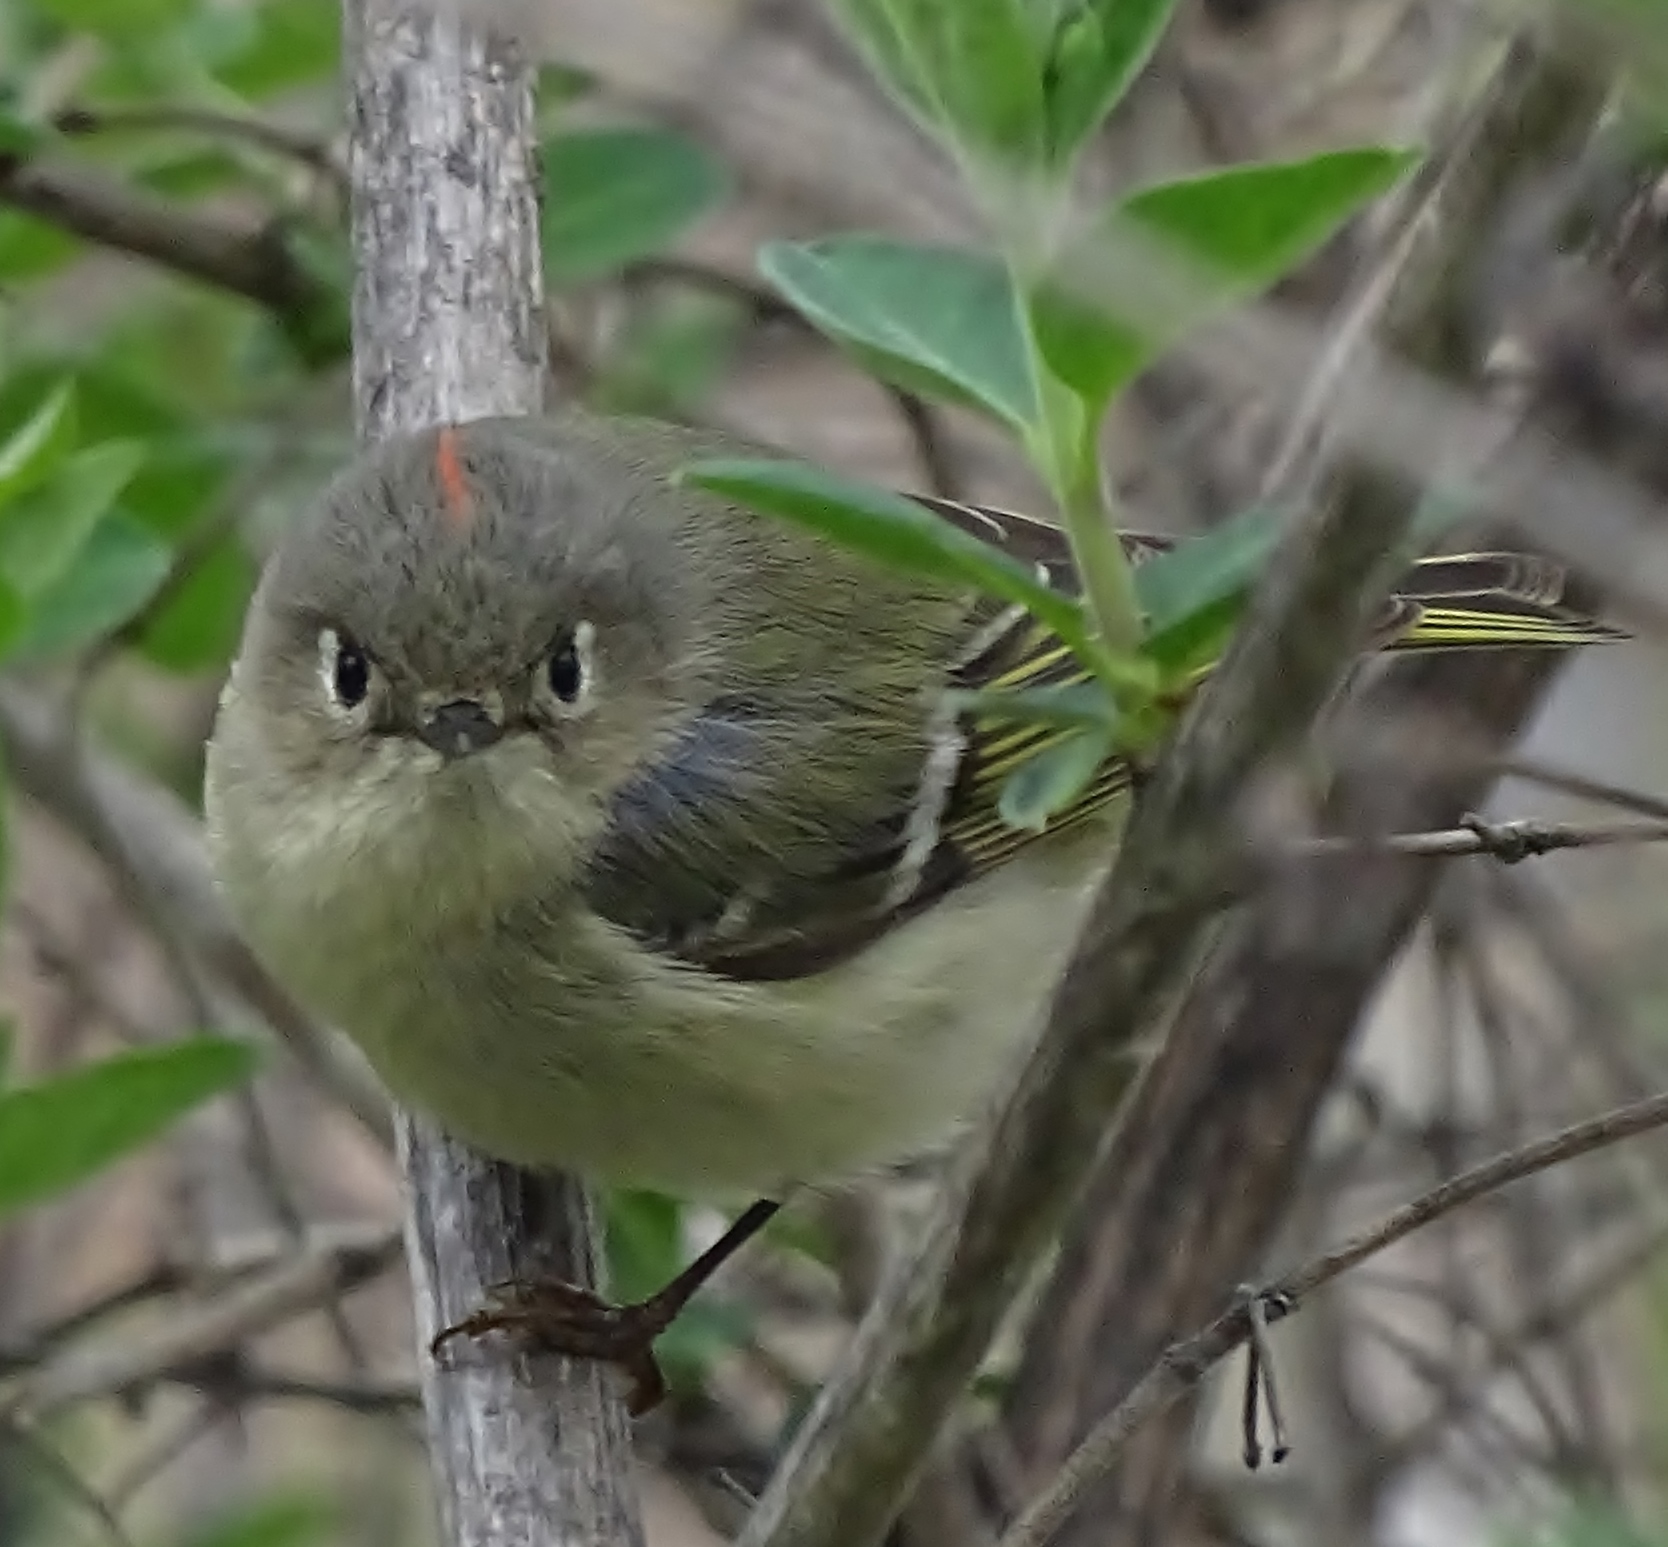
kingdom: Animalia
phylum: Chordata
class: Aves
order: Passeriformes
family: Regulidae
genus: Regulus
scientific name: Regulus calendula
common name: Ruby-crowned kinglet
